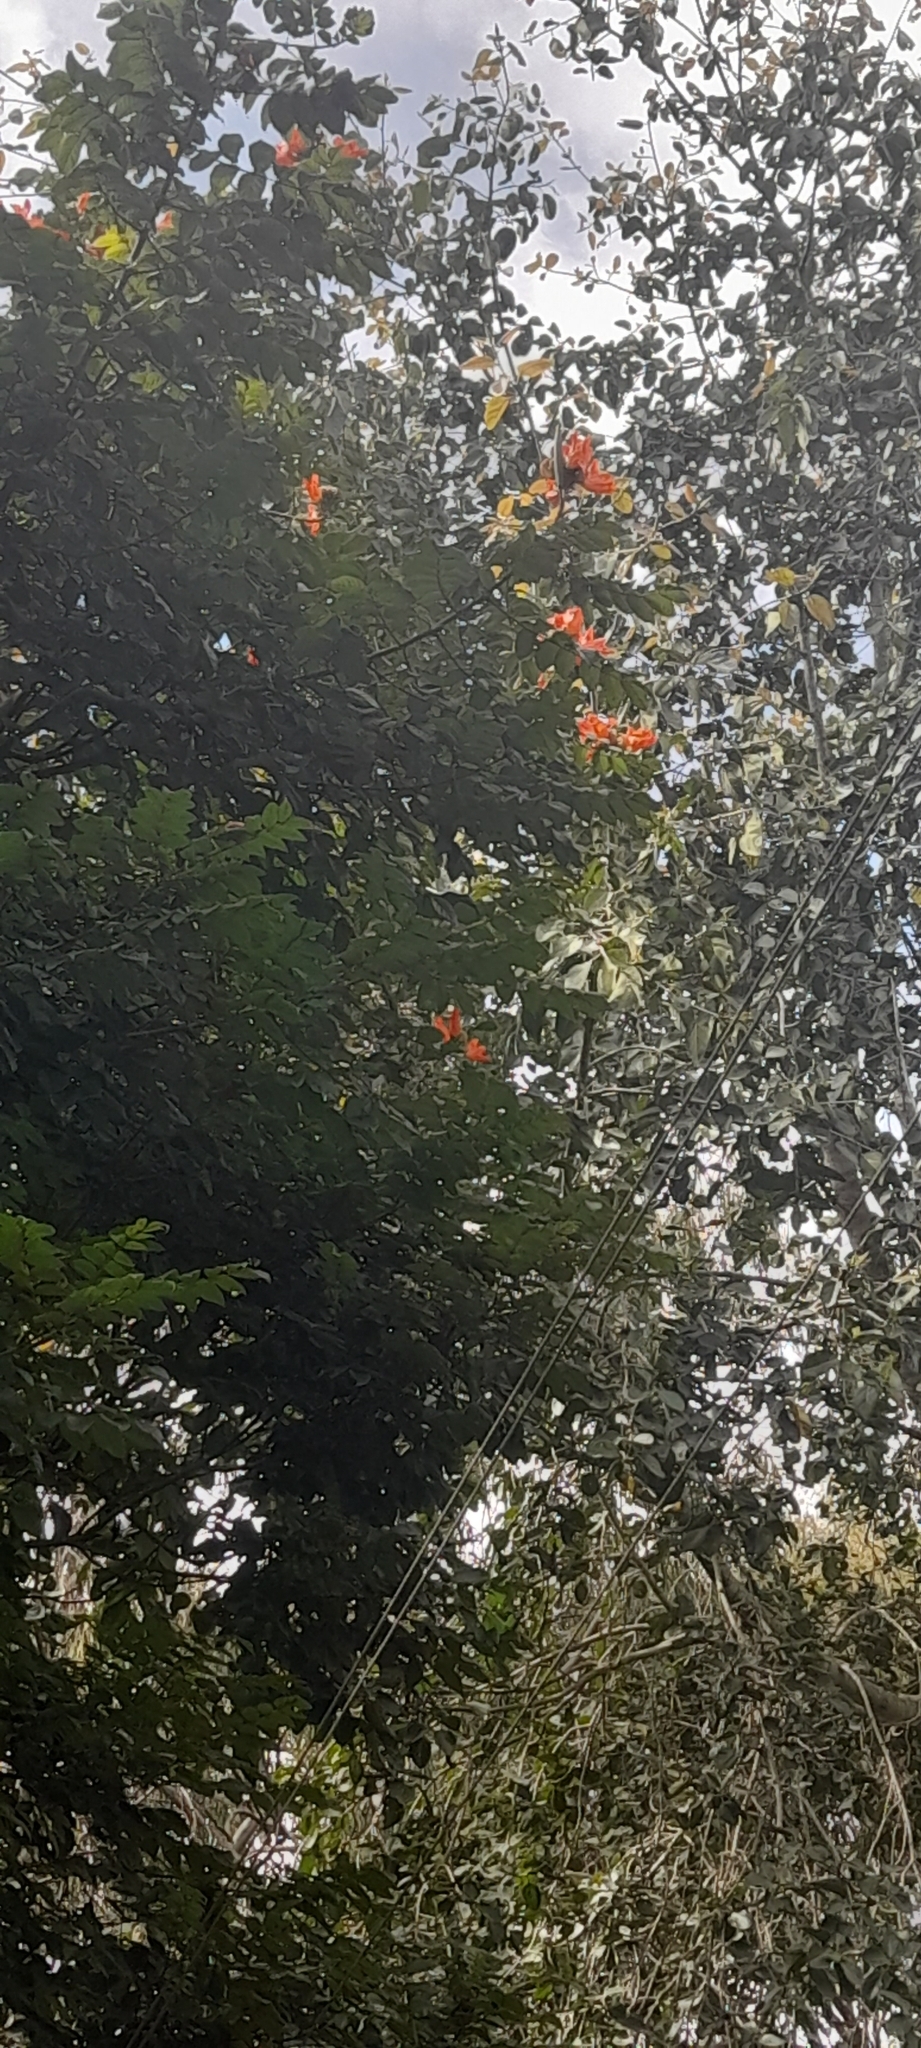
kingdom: Plantae
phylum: Tracheophyta
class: Magnoliopsida
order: Lamiales
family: Bignoniaceae
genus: Spathodea
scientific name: Spathodea campanulata
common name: African tuliptree
